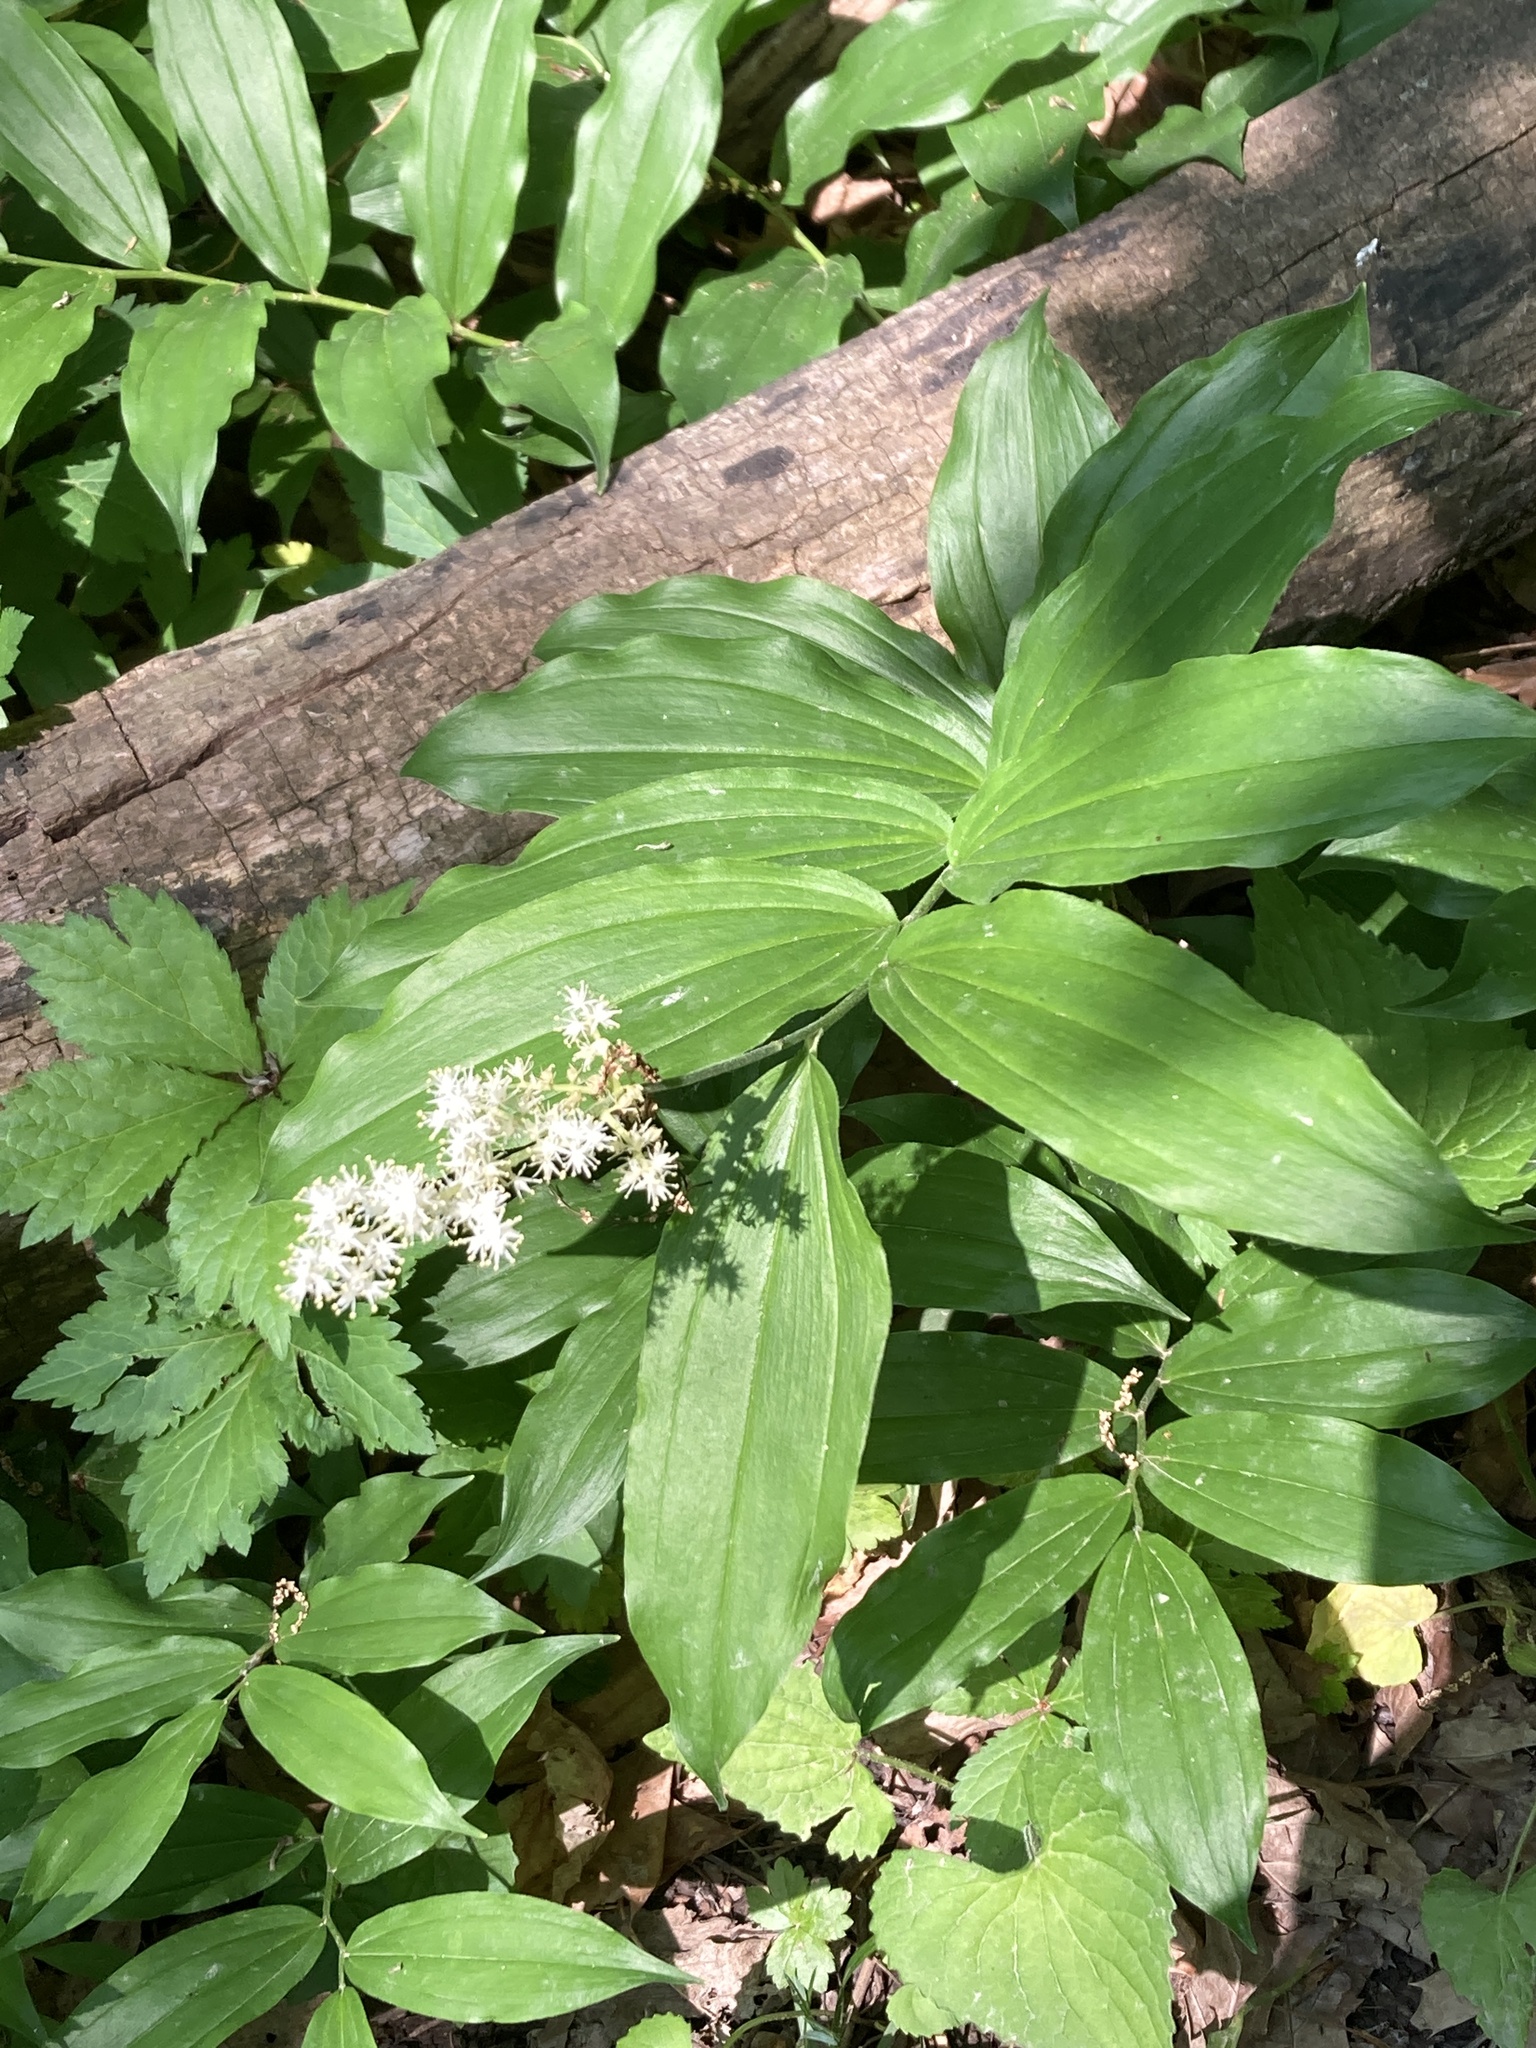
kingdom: Plantae
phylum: Tracheophyta
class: Liliopsida
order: Asparagales
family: Asparagaceae
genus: Maianthemum
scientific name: Maianthemum racemosum
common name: False spikenard
